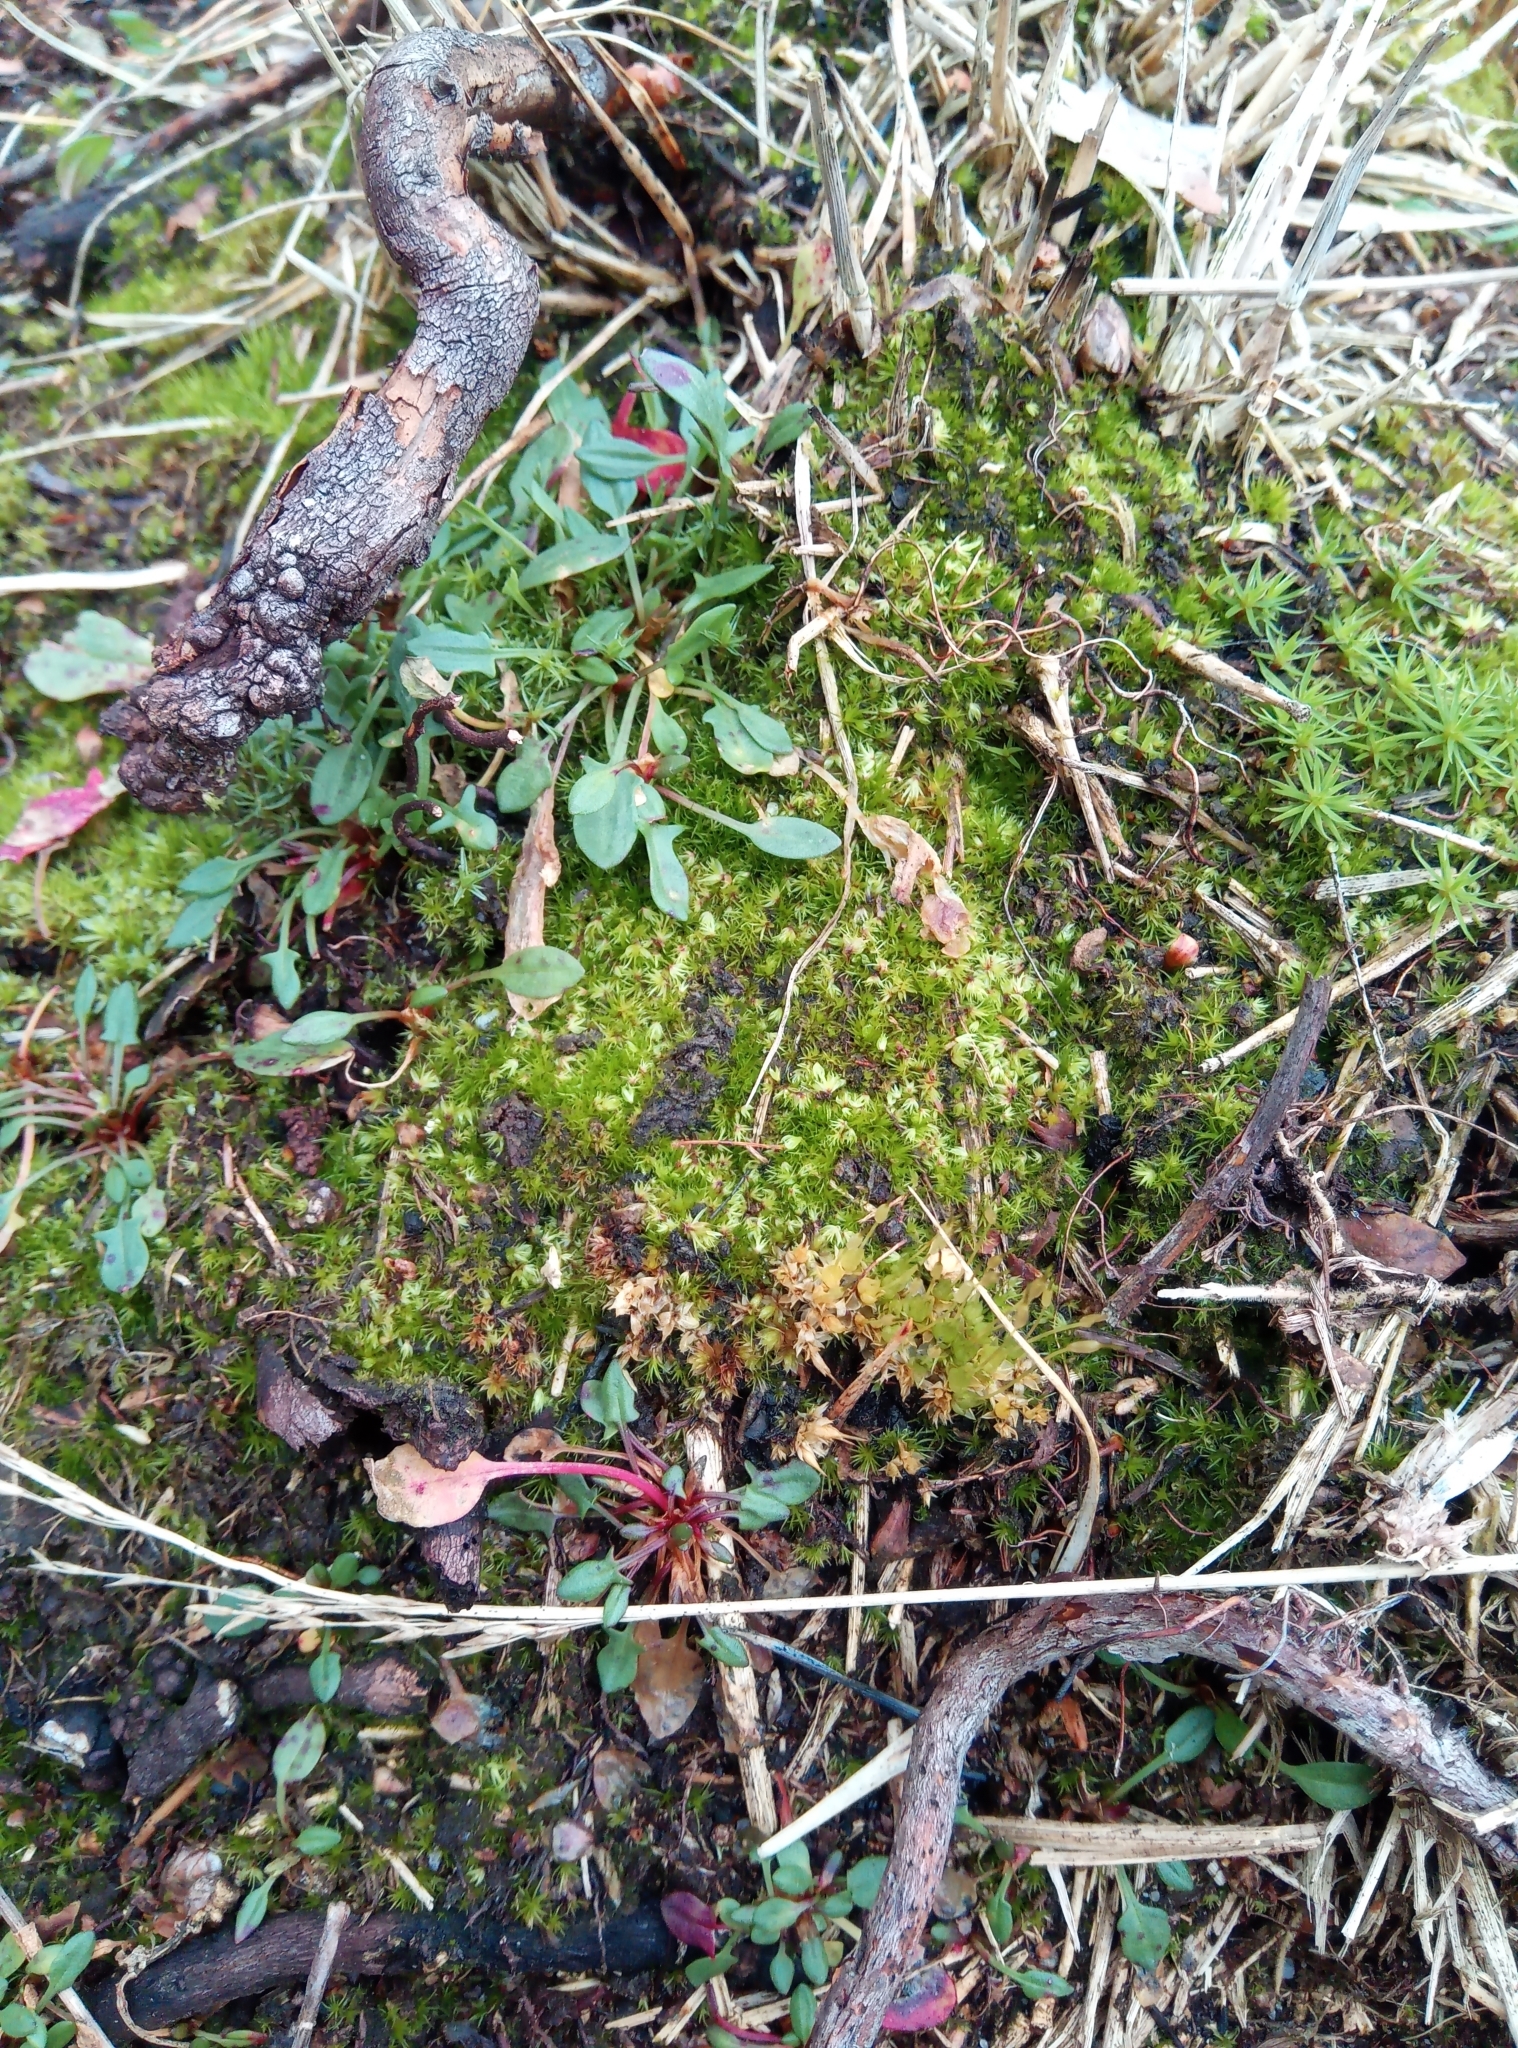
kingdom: Plantae
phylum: Bryophyta
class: Bryopsida
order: Funariales
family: Funariaceae
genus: Funaria
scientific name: Funaria hygrometrica
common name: Common cord moss
